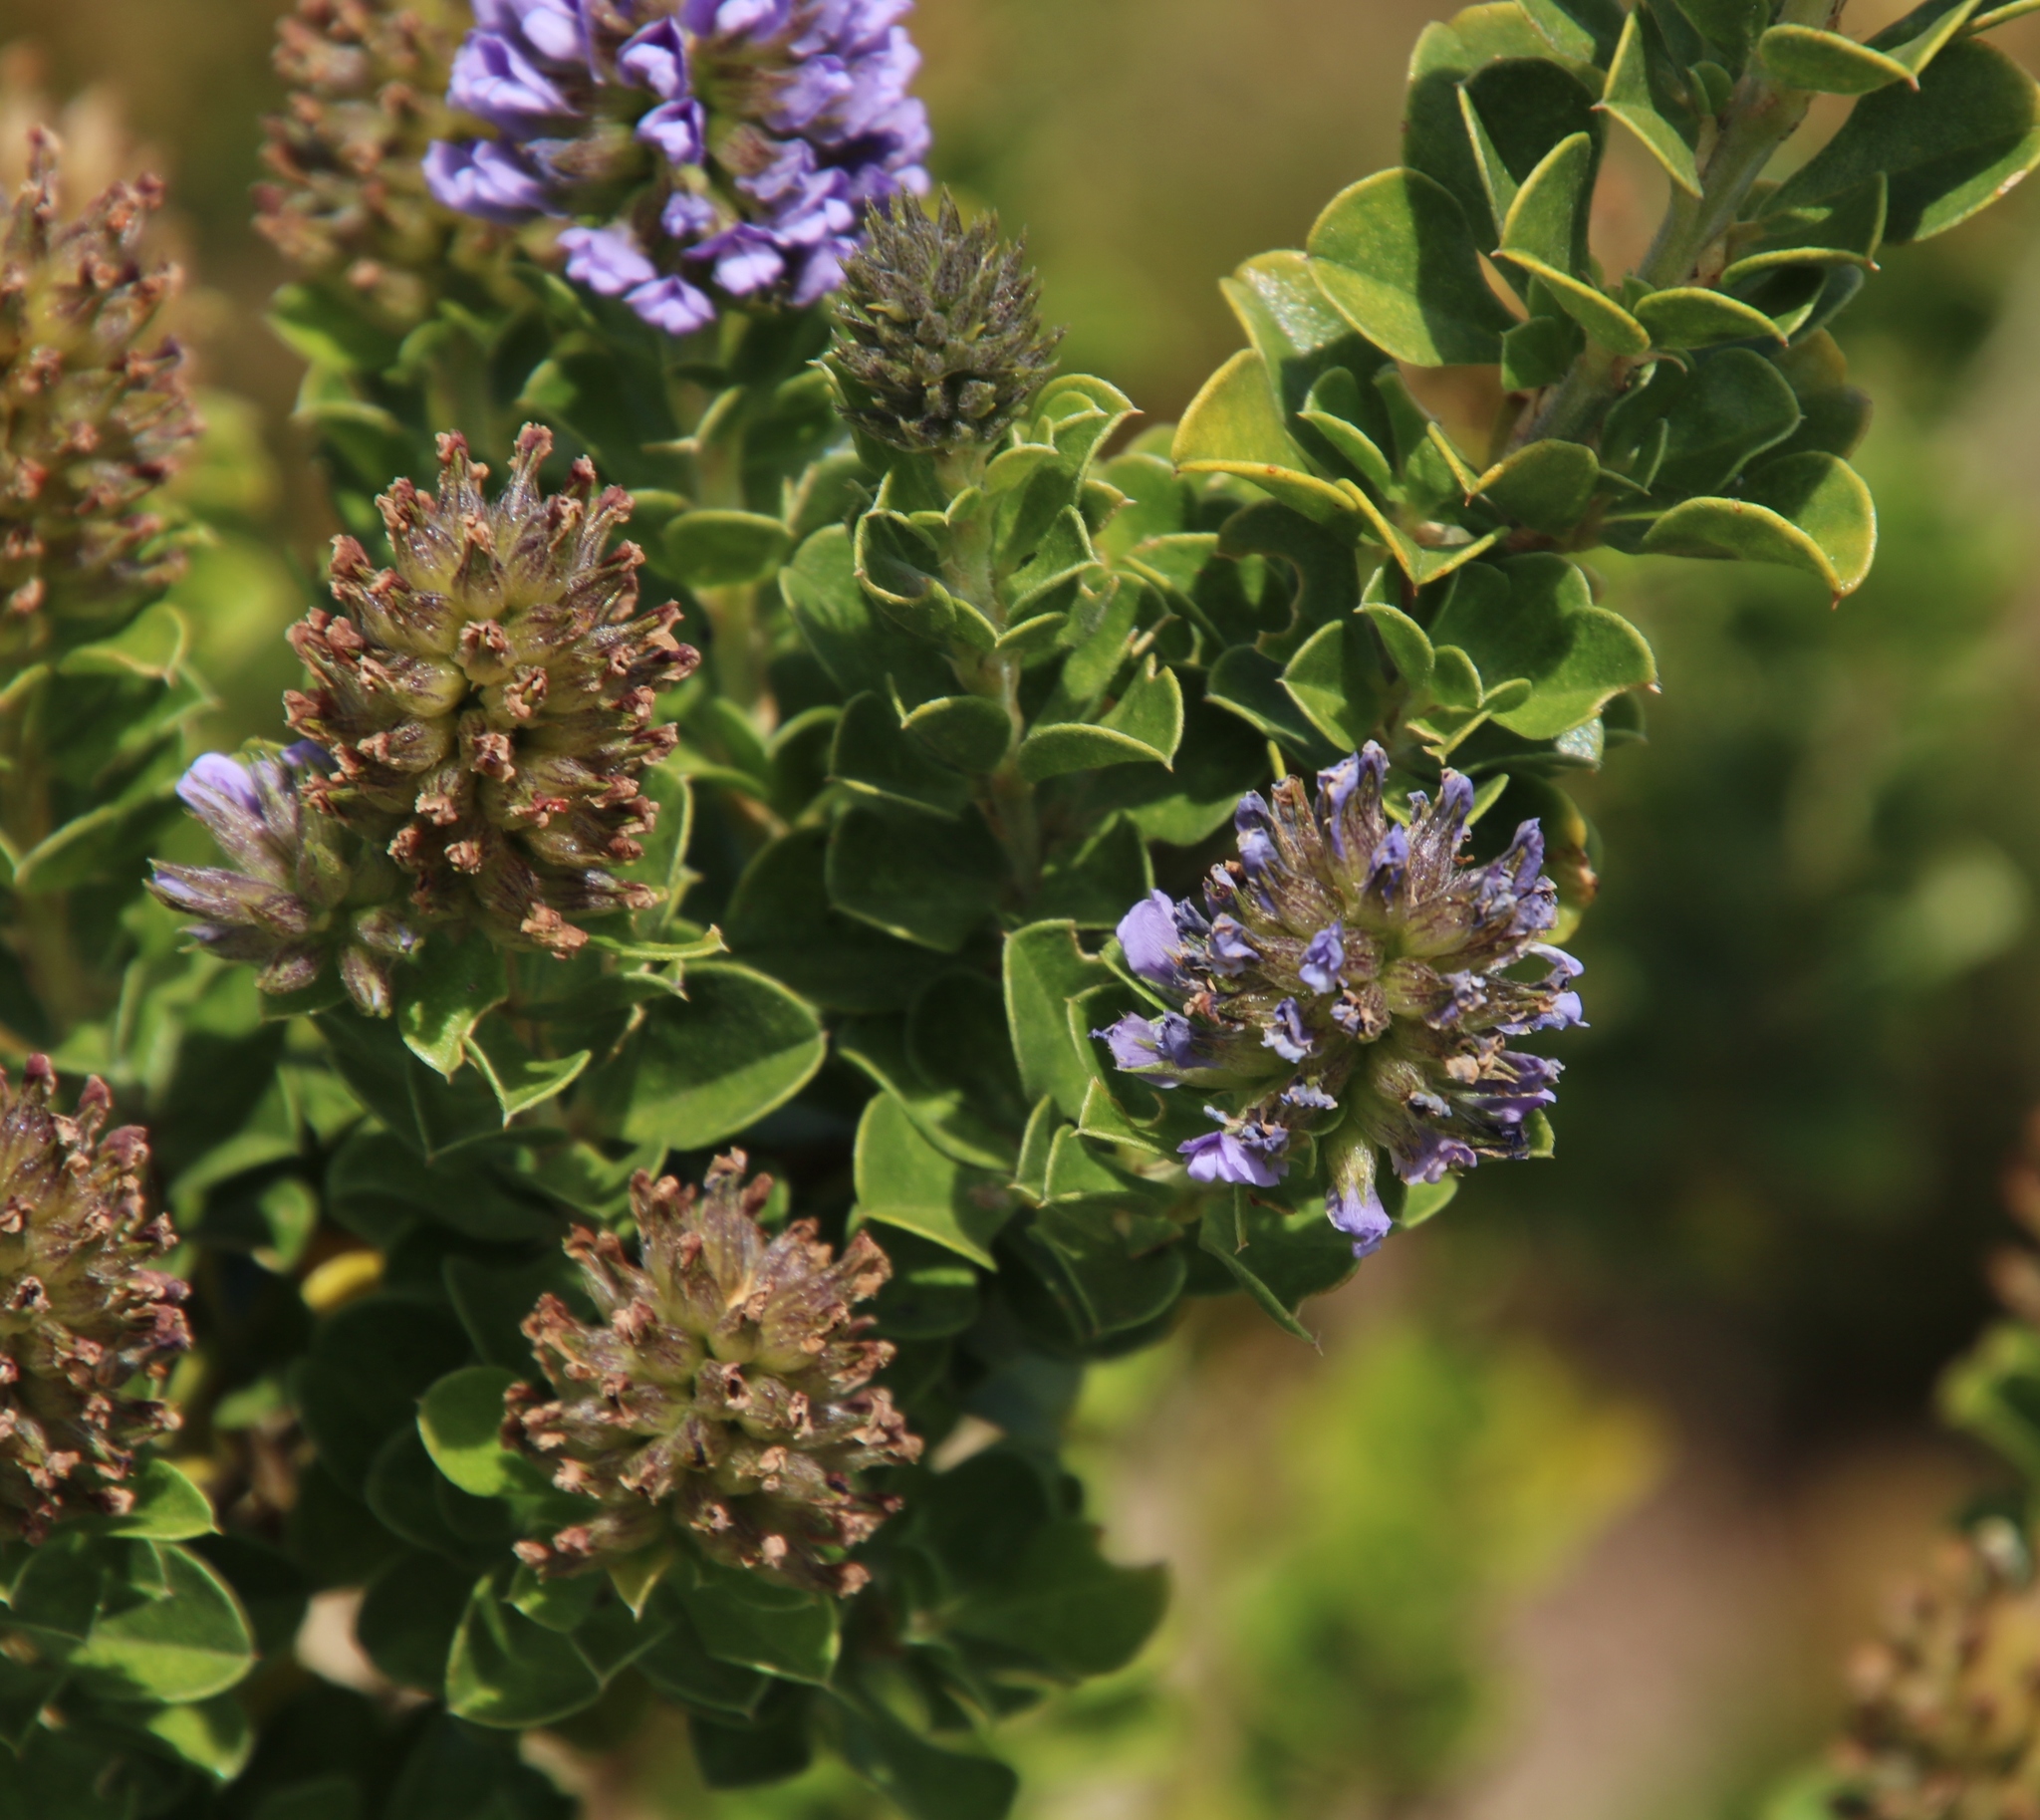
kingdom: Plantae
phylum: Tracheophyta
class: Magnoliopsida
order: Fabales
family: Fabaceae
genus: Psoralea
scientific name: Psoralea bracteolata
